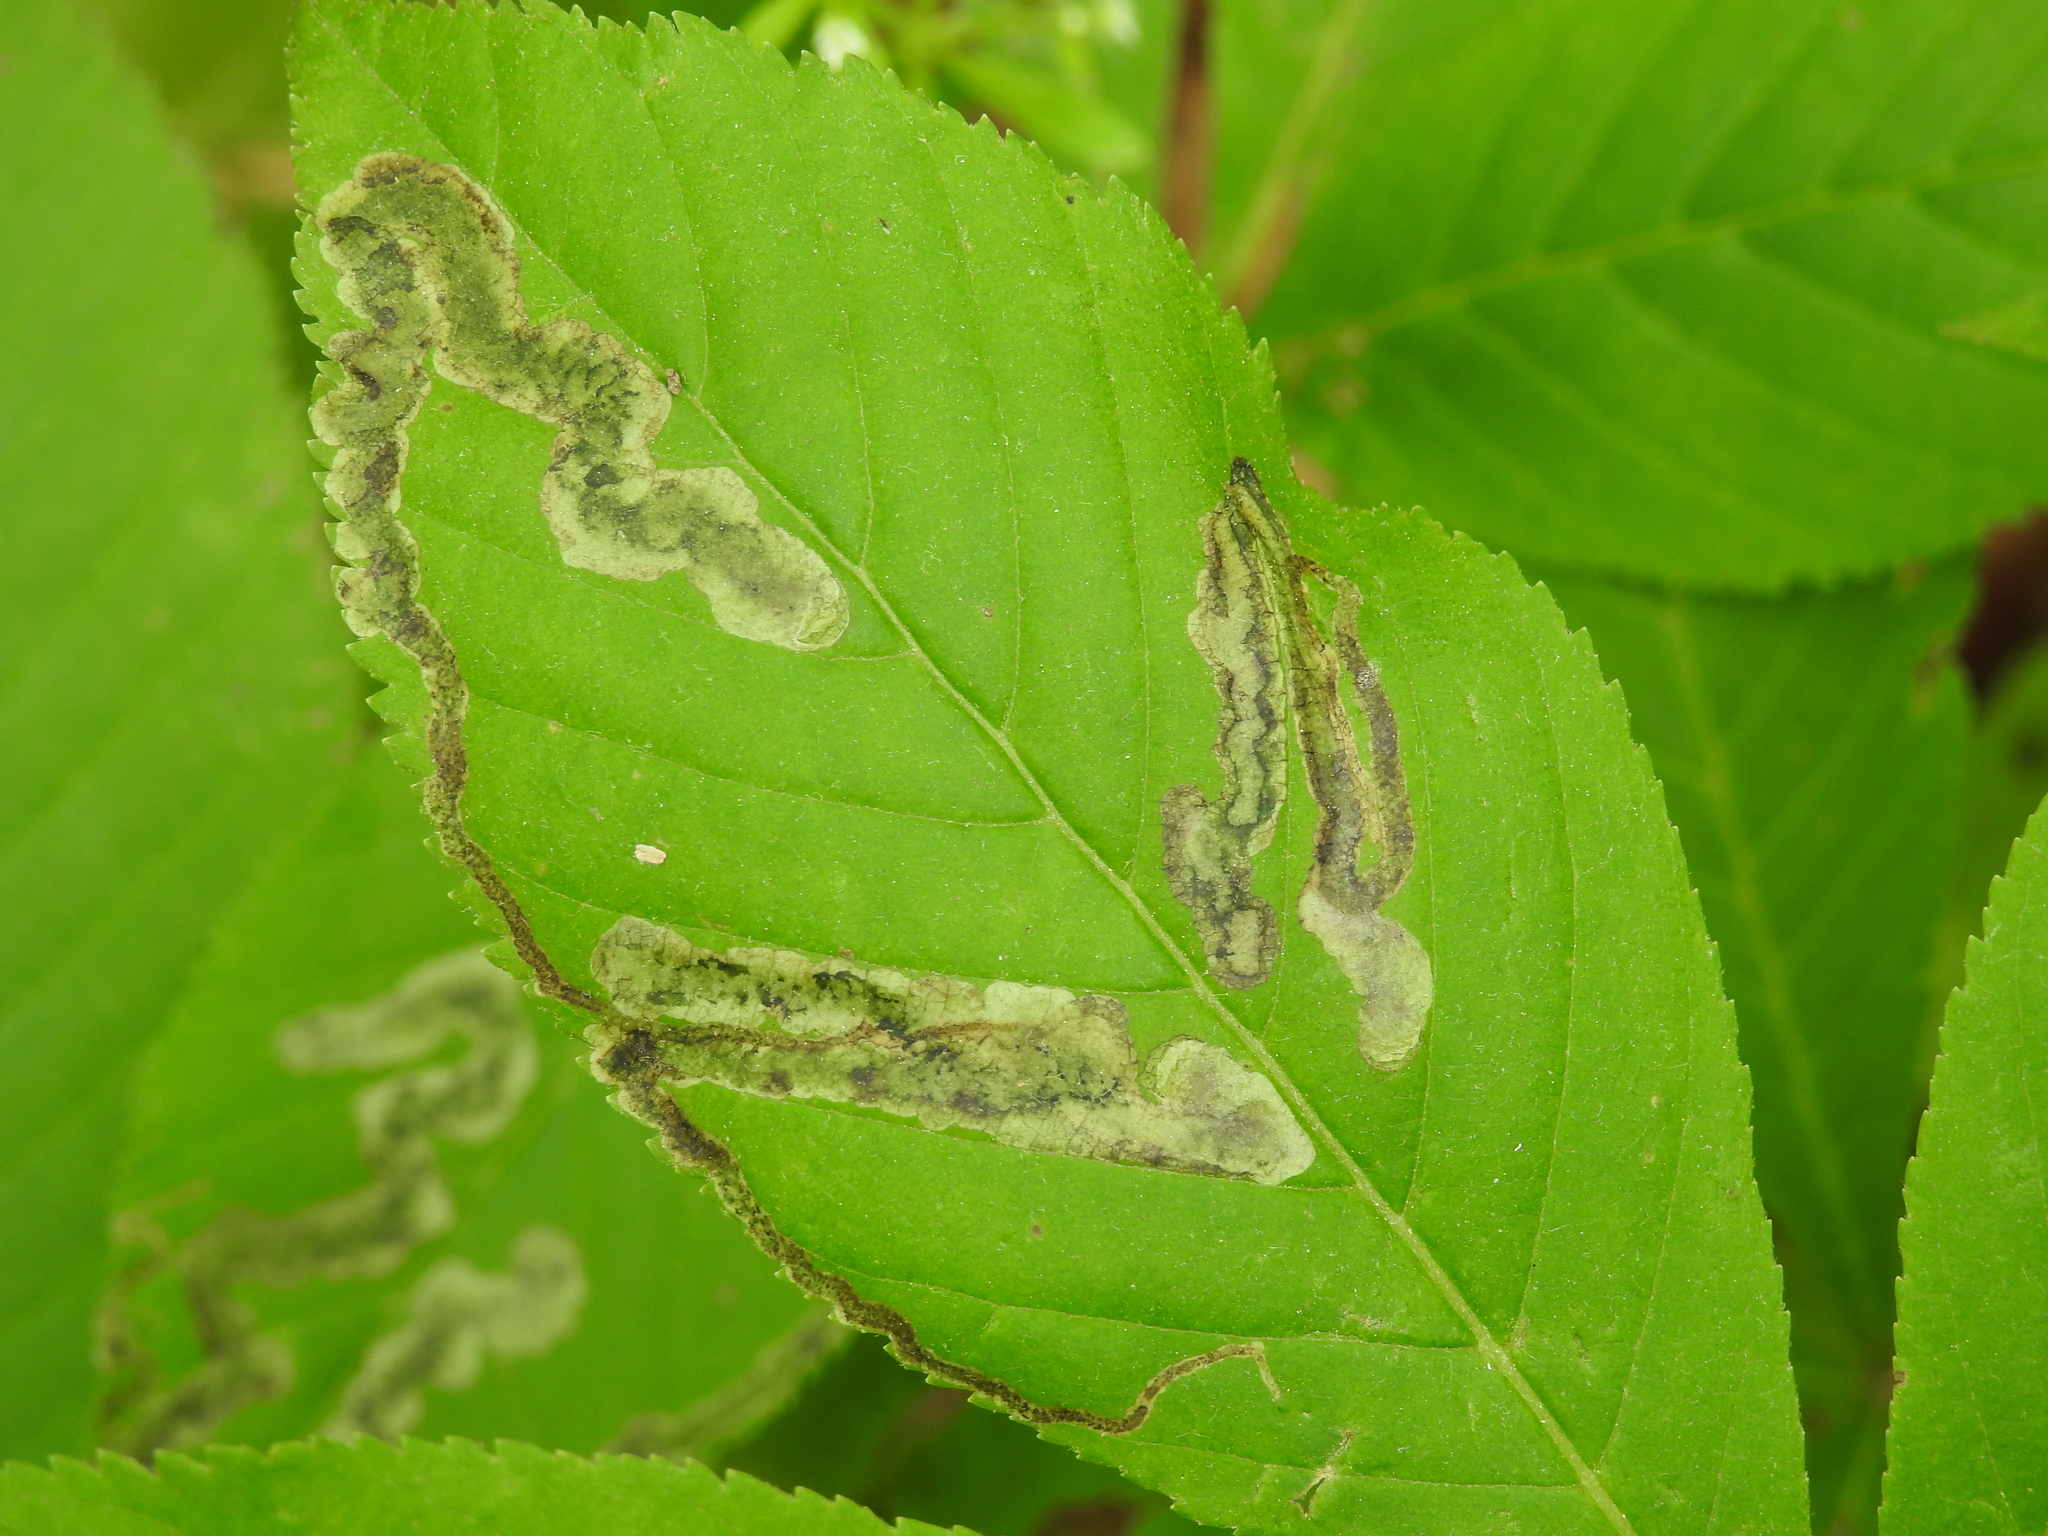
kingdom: Animalia
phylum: Arthropoda
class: Insecta
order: Diptera
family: Agromyzidae
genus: Phytomyza
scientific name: Phytomyza aesculi
